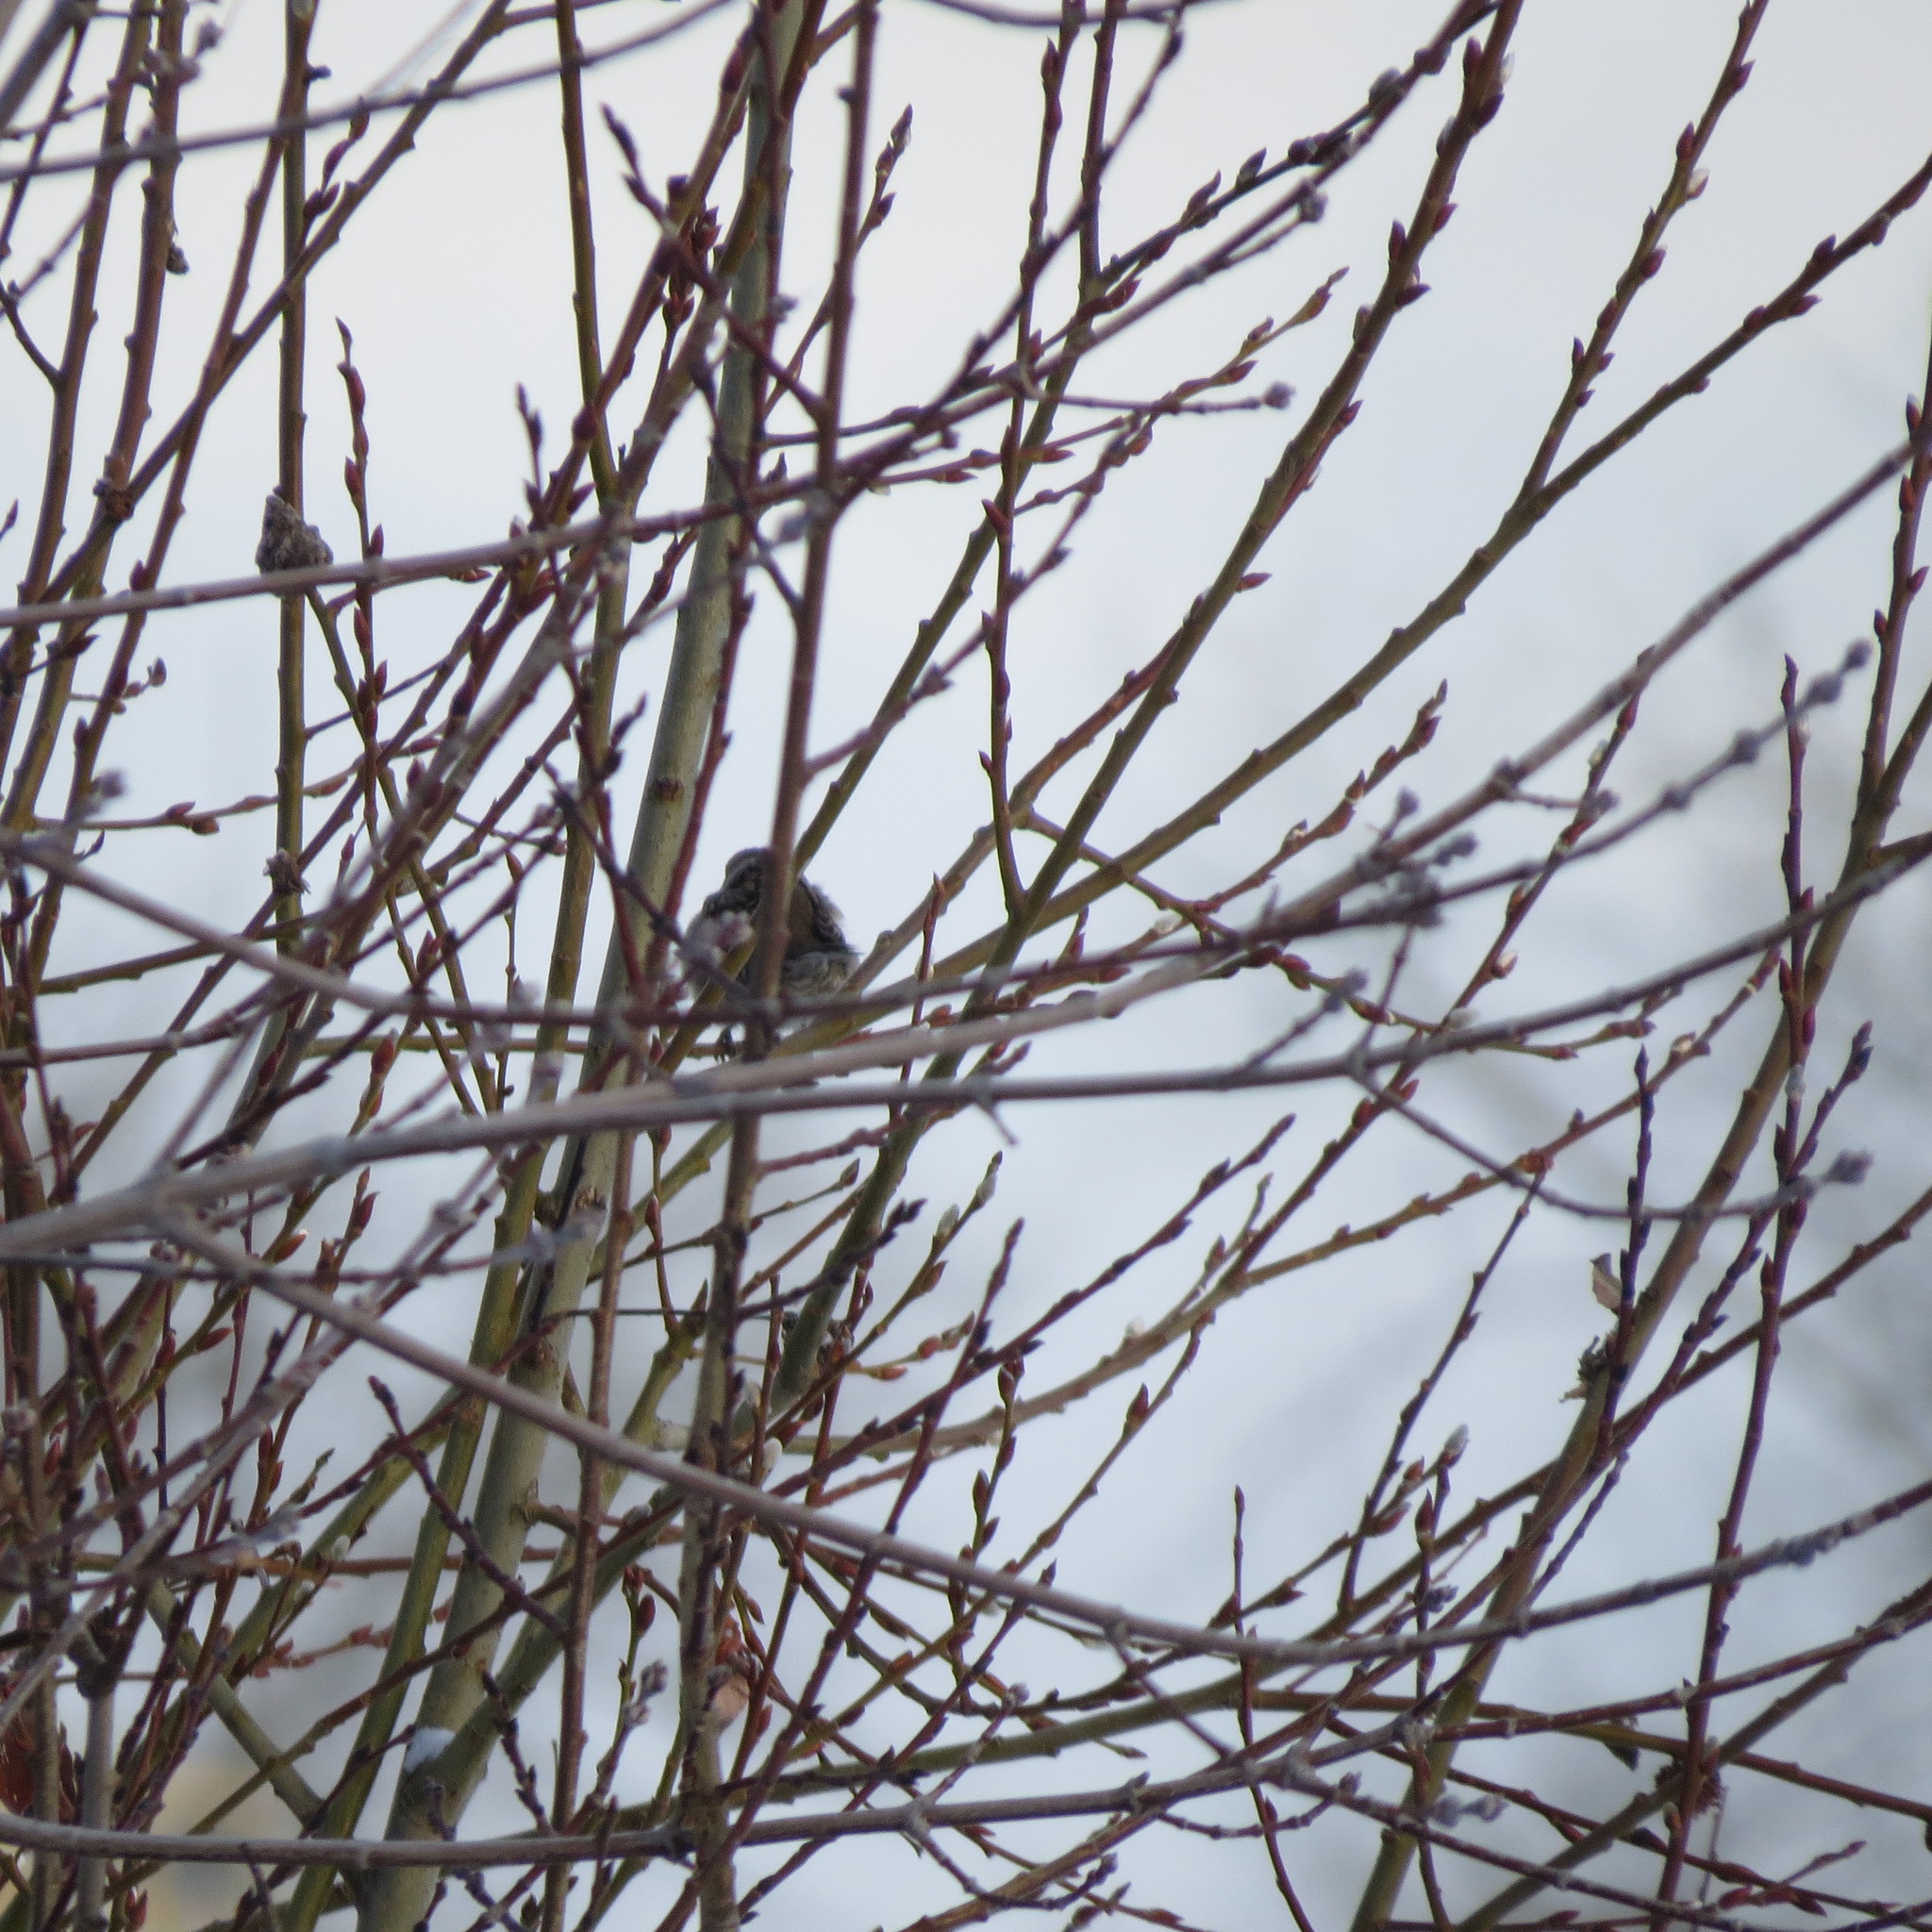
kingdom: Animalia
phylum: Chordata
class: Aves
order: Passeriformes
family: Passeridae
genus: Passer
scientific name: Passer montanus
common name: Eurasian tree sparrow
